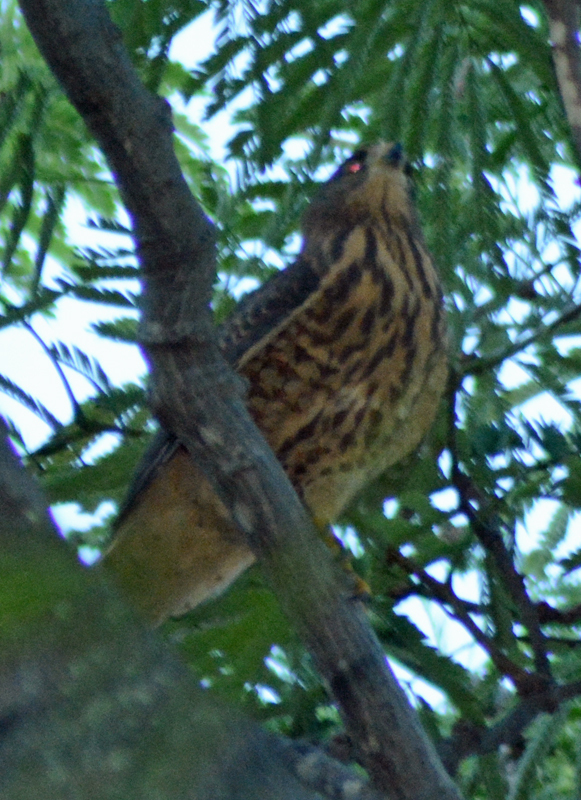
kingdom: Animalia
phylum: Chordata
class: Aves
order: Accipitriformes
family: Accipitridae
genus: Rupornis
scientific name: Rupornis magnirostris
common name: Roadside hawk
